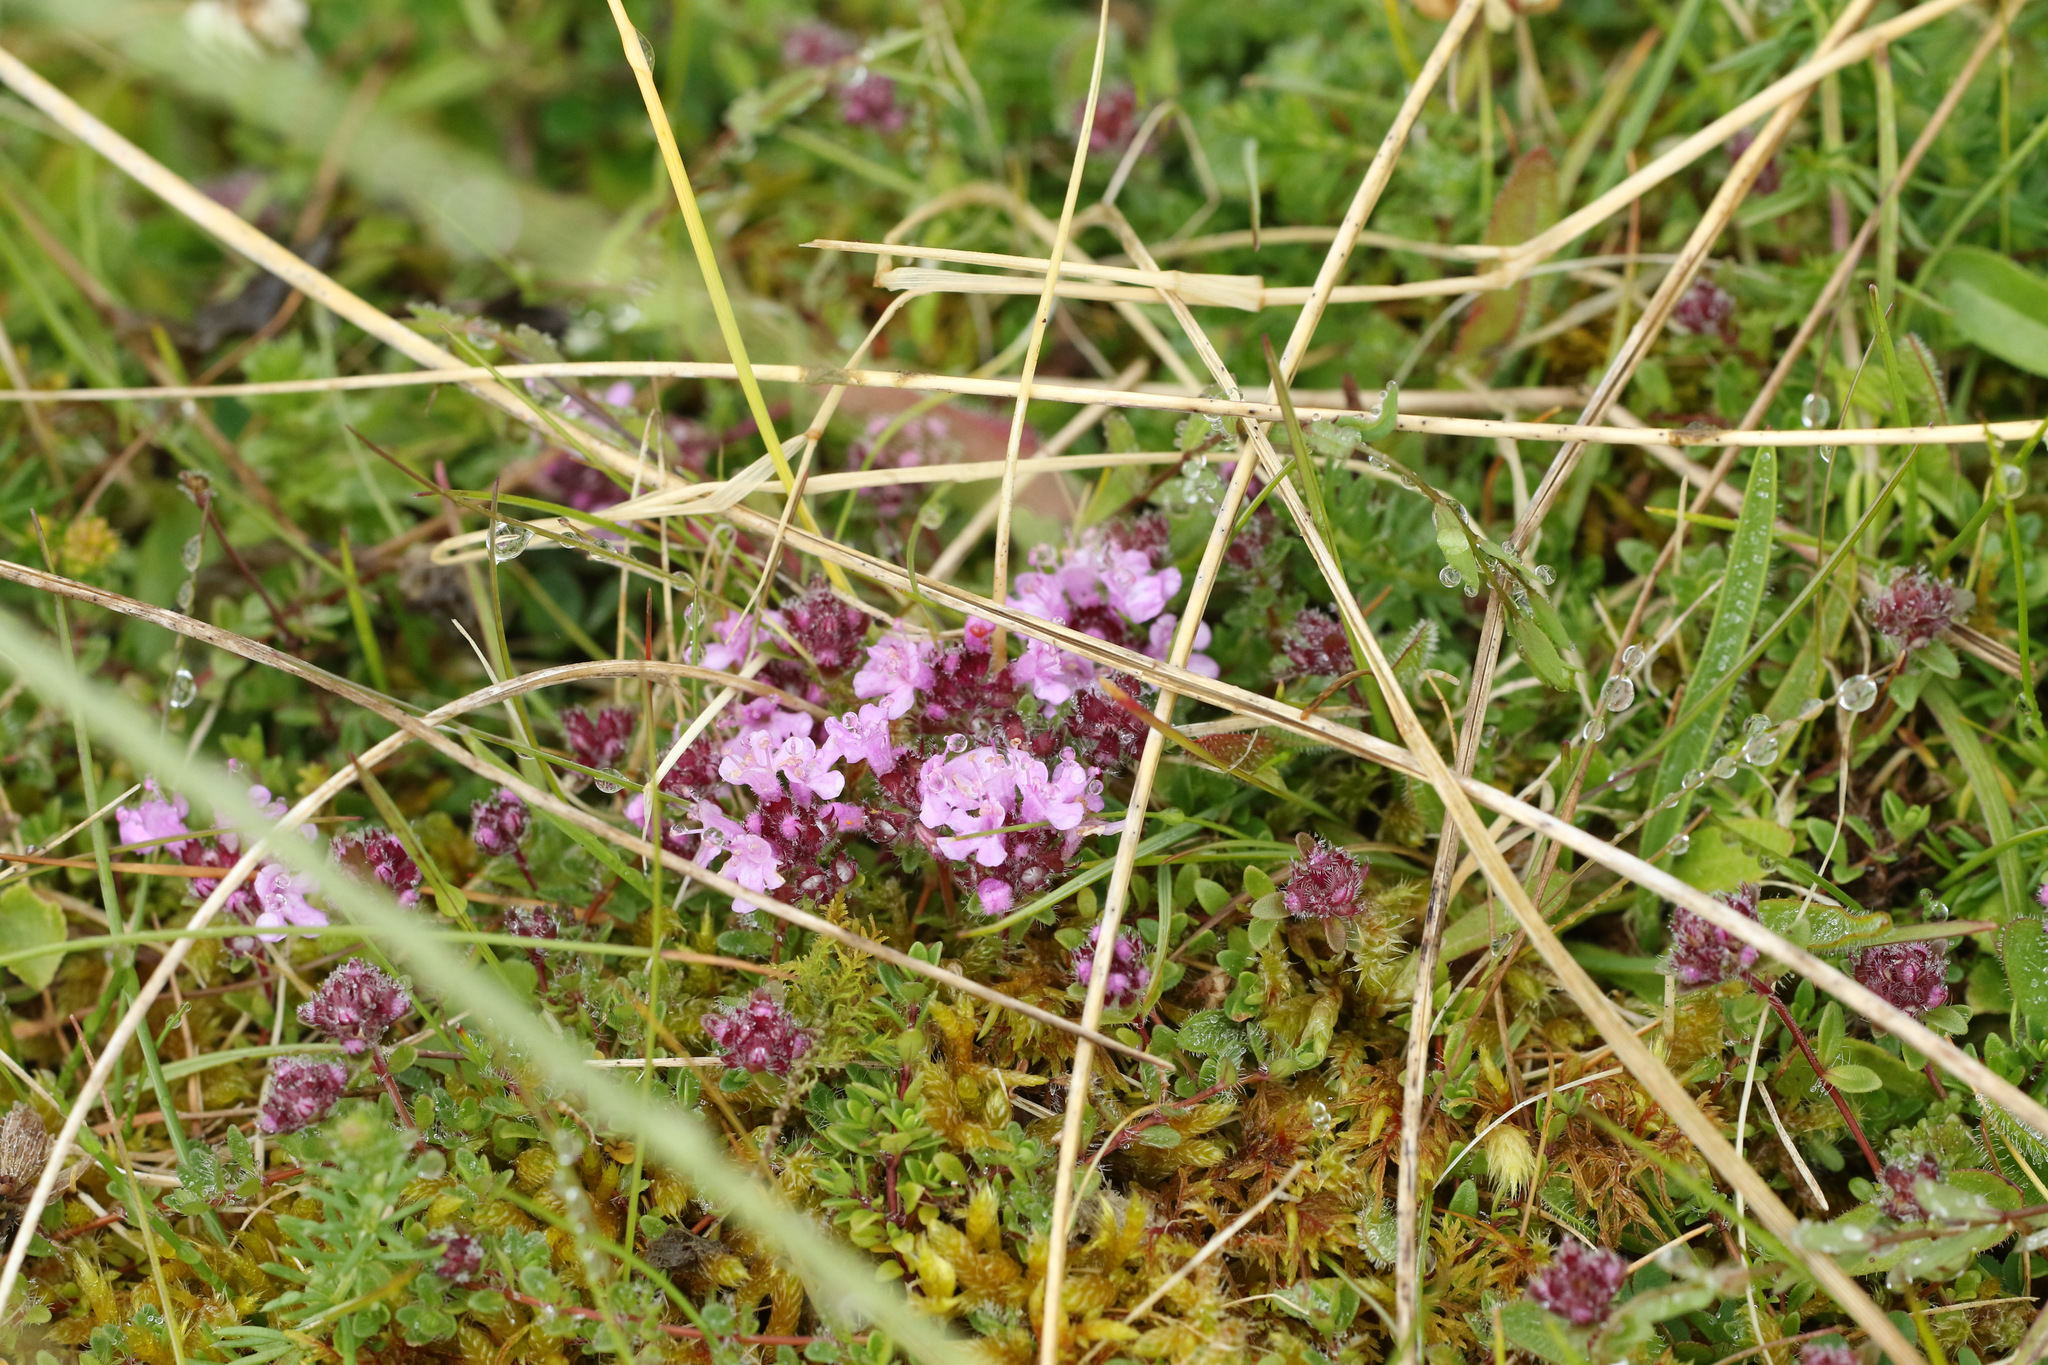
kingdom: Plantae
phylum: Tracheophyta
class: Magnoliopsida
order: Lamiales
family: Lamiaceae
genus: Thymus
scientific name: Thymus praecox
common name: Wild thyme
